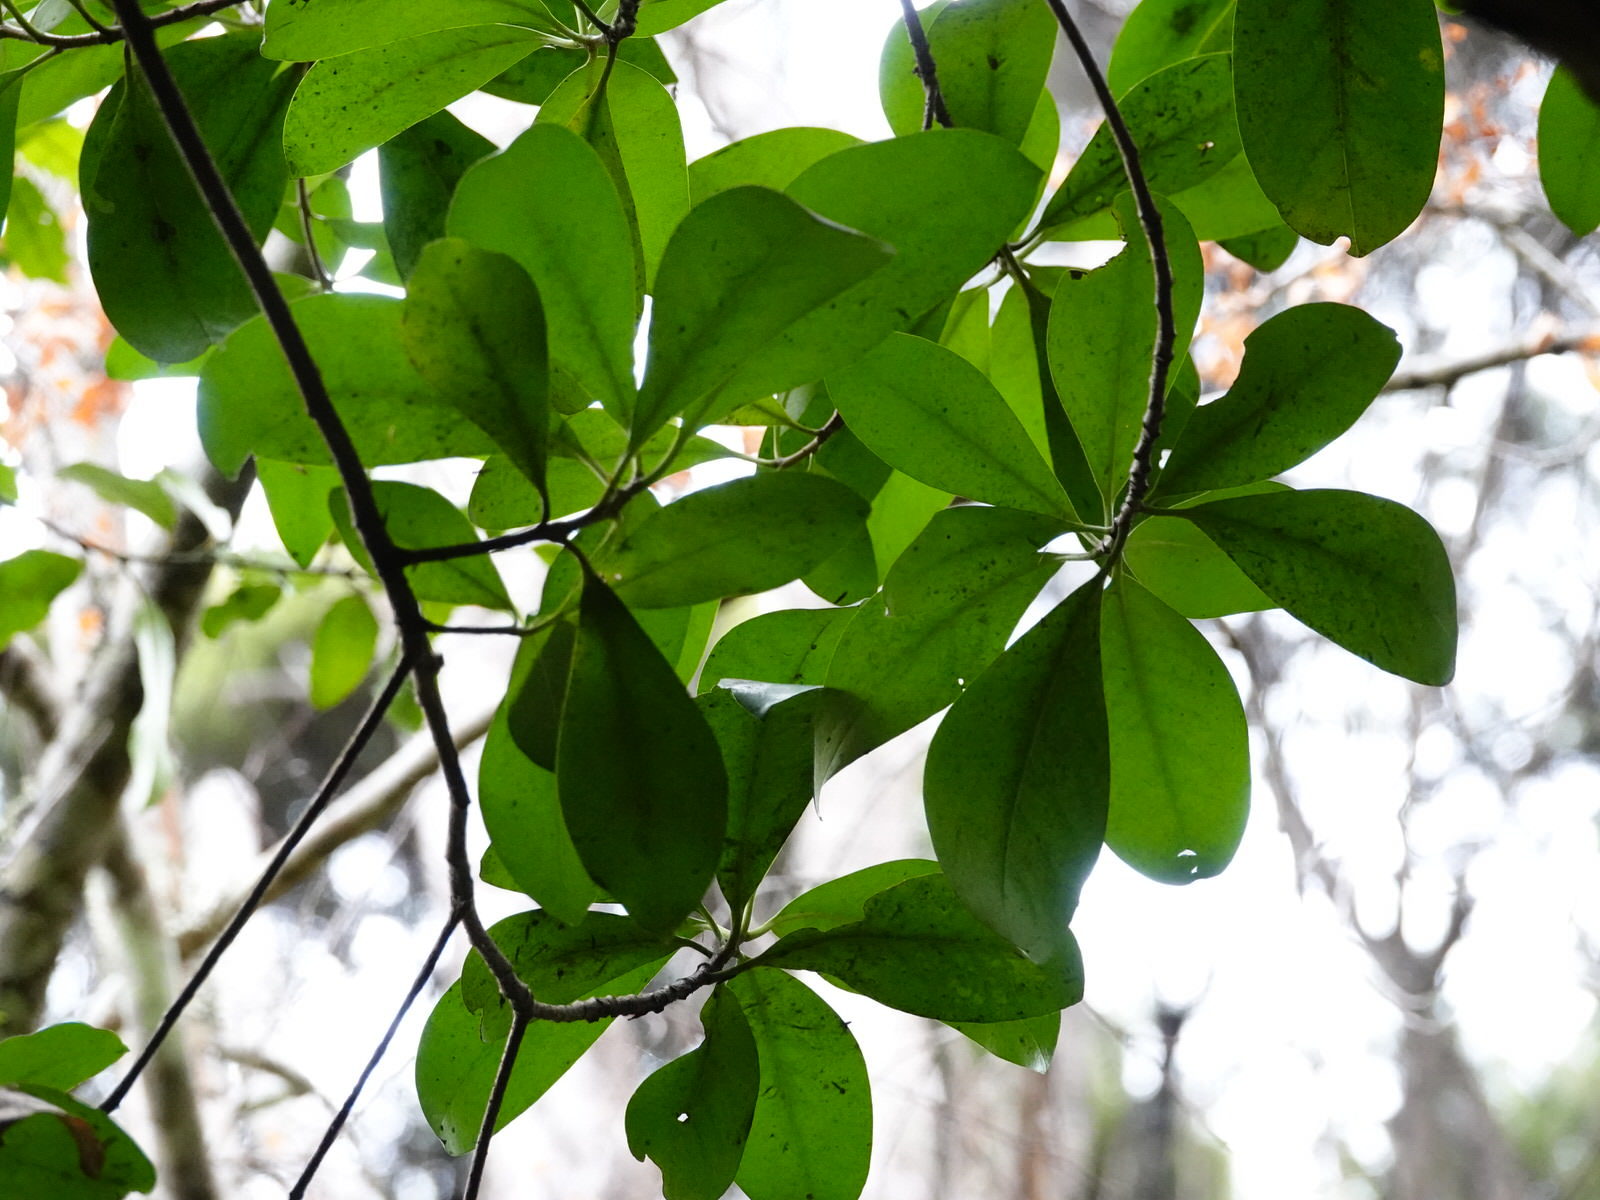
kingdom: Plantae
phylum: Tracheophyta
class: Magnoliopsida
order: Cucurbitales
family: Corynocarpaceae
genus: Corynocarpus
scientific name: Corynocarpus laevigatus
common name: New zealand laurel
